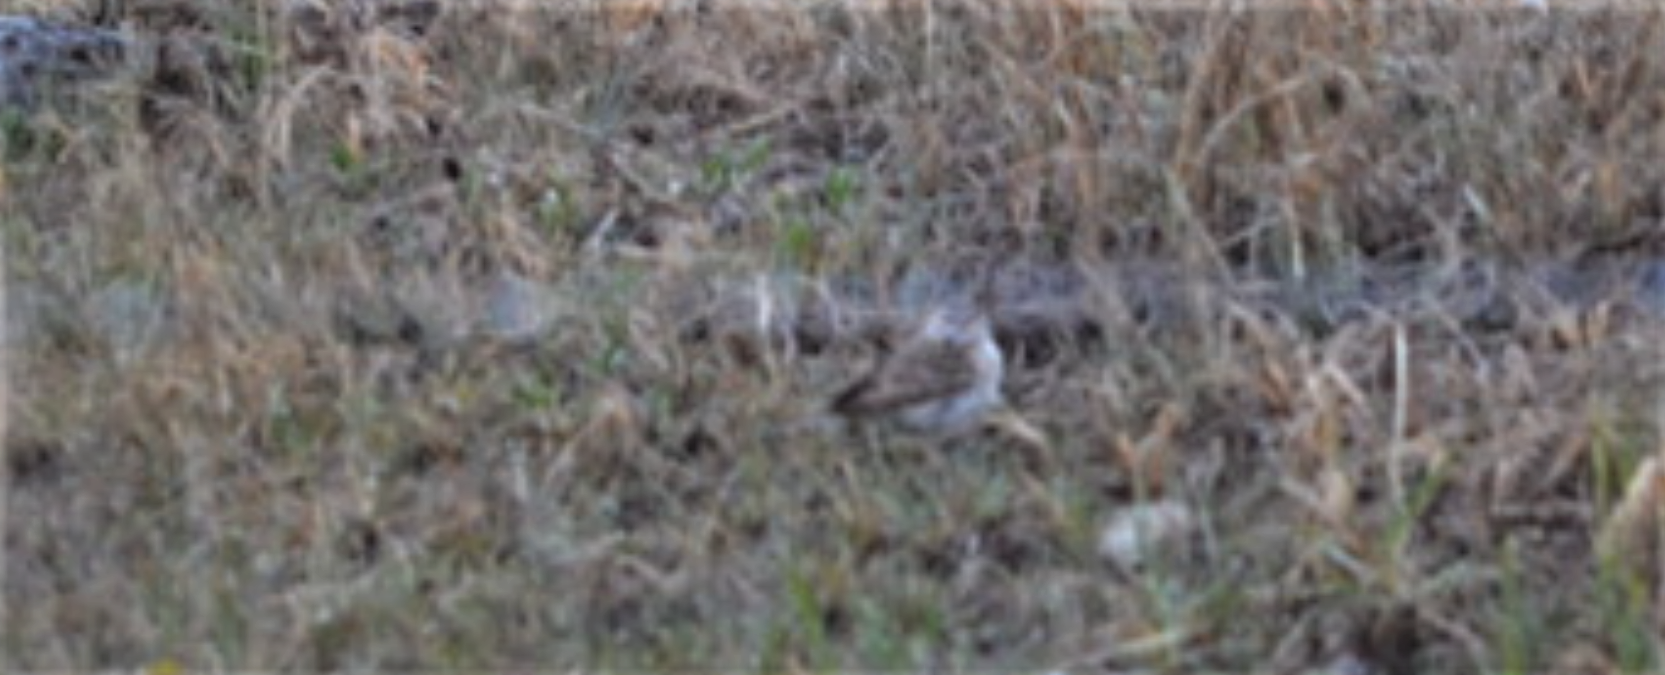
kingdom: Animalia
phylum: Chordata
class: Aves
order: Passeriformes
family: Calcariidae
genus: Plectrophenax
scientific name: Plectrophenax nivalis
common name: Snow bunting
